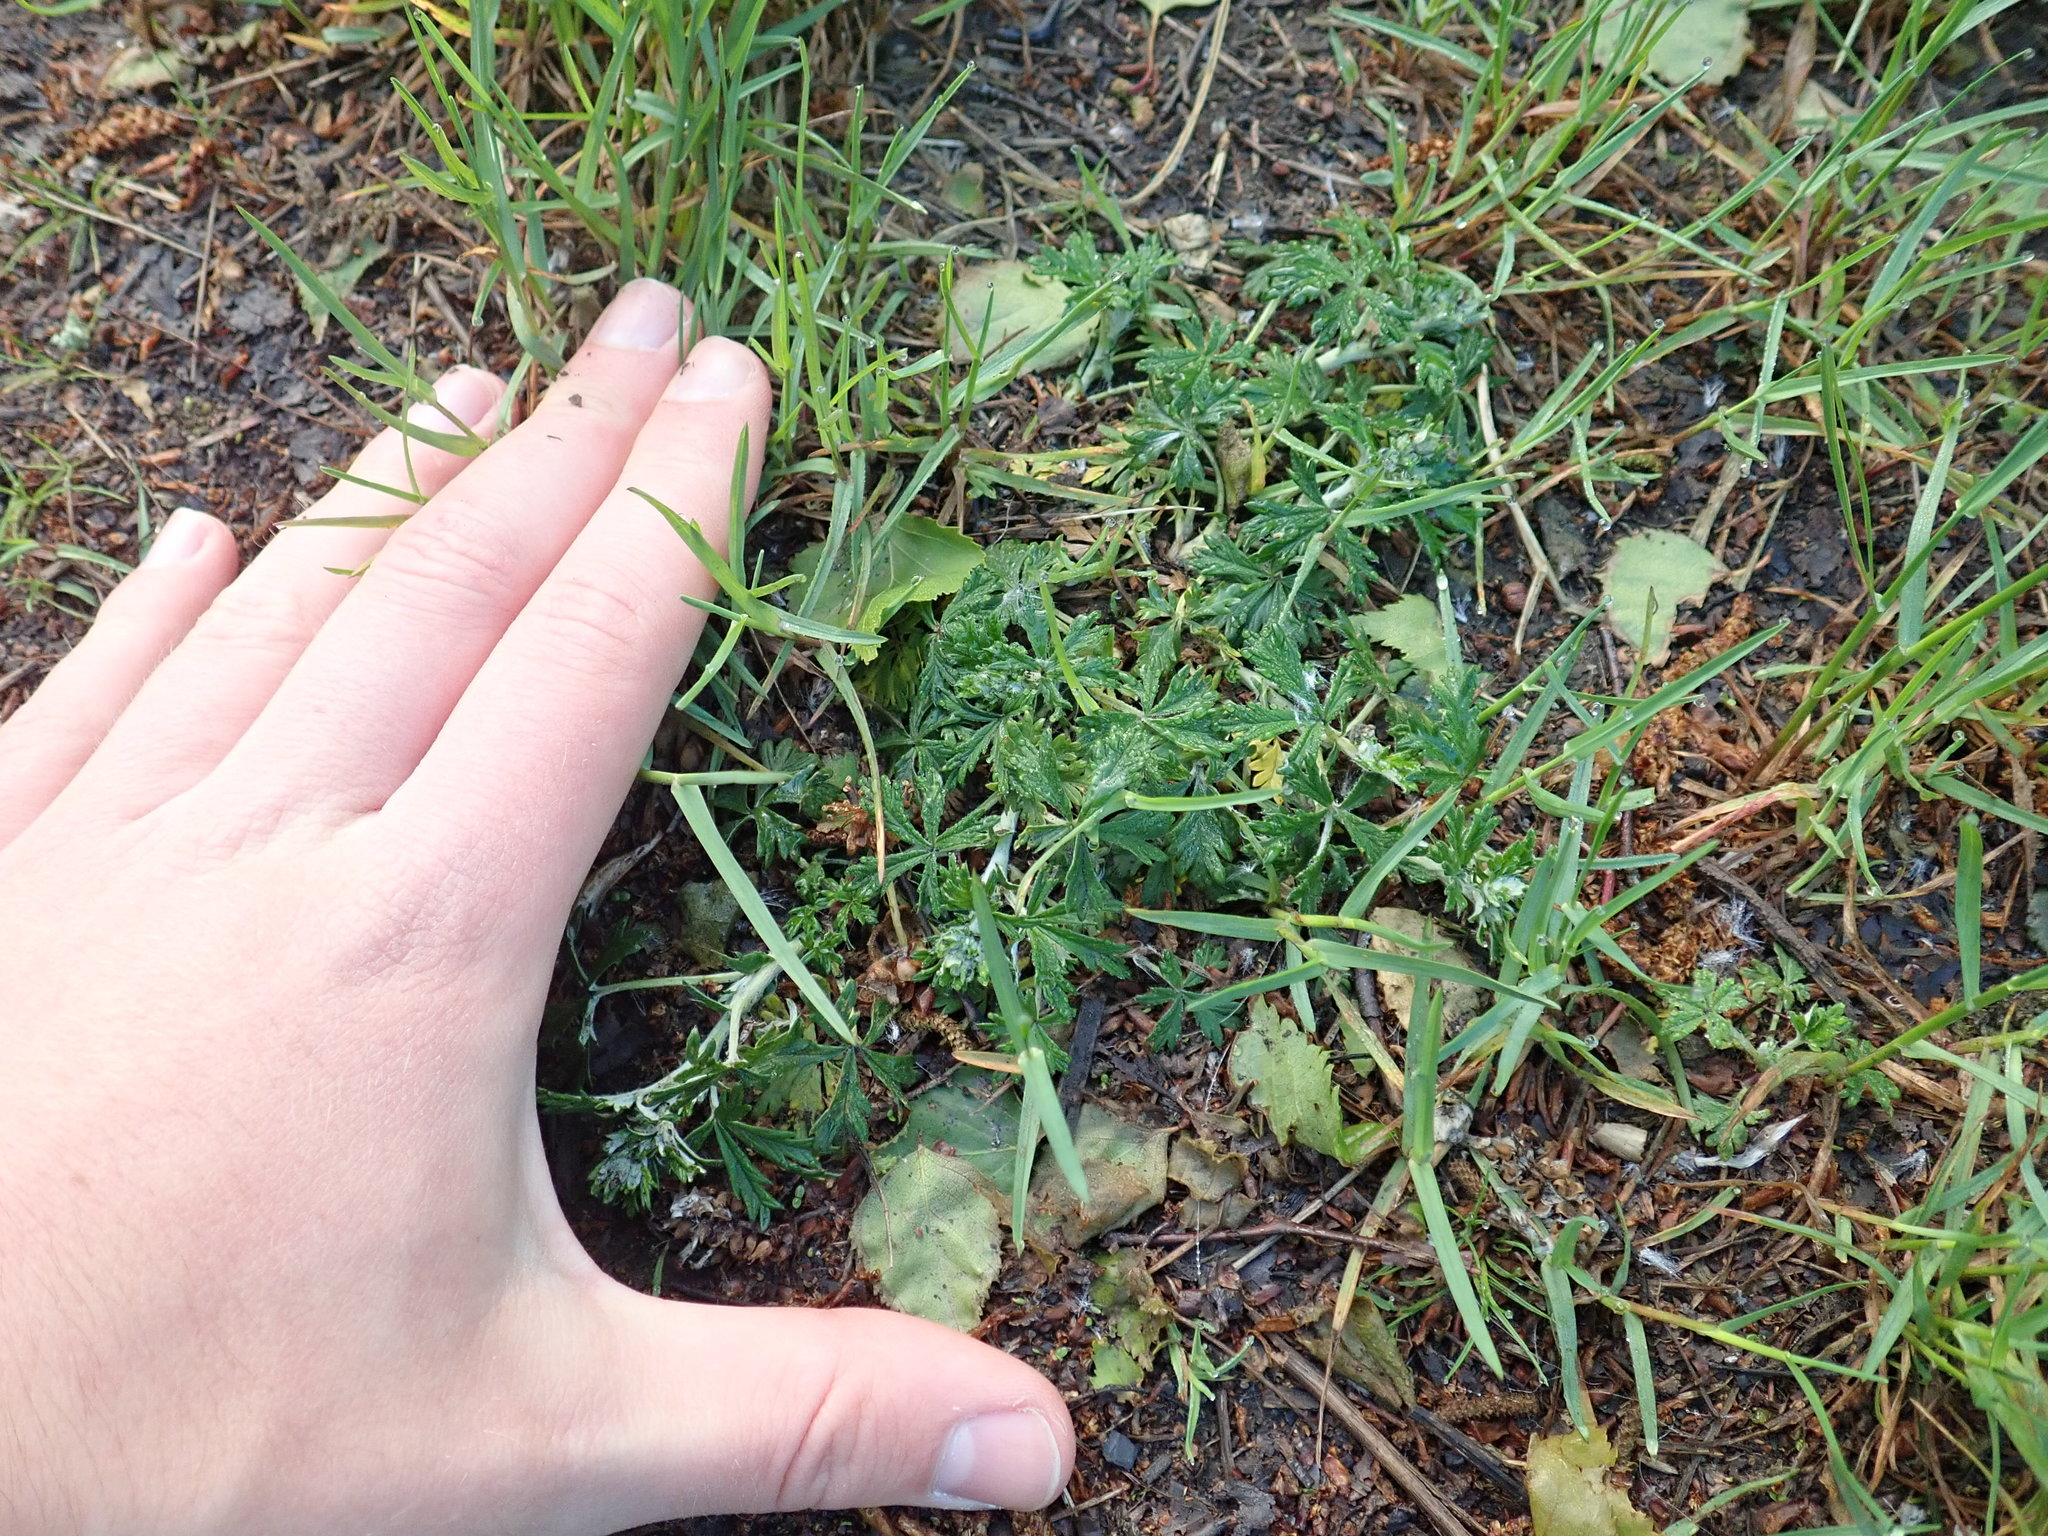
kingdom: Plantae
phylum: Tracheophyta
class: Magnoliopsida
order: Rosales
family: Rosaceae
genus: Potentilla
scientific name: Potentilla argentea
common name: Hoary cinquefoil
